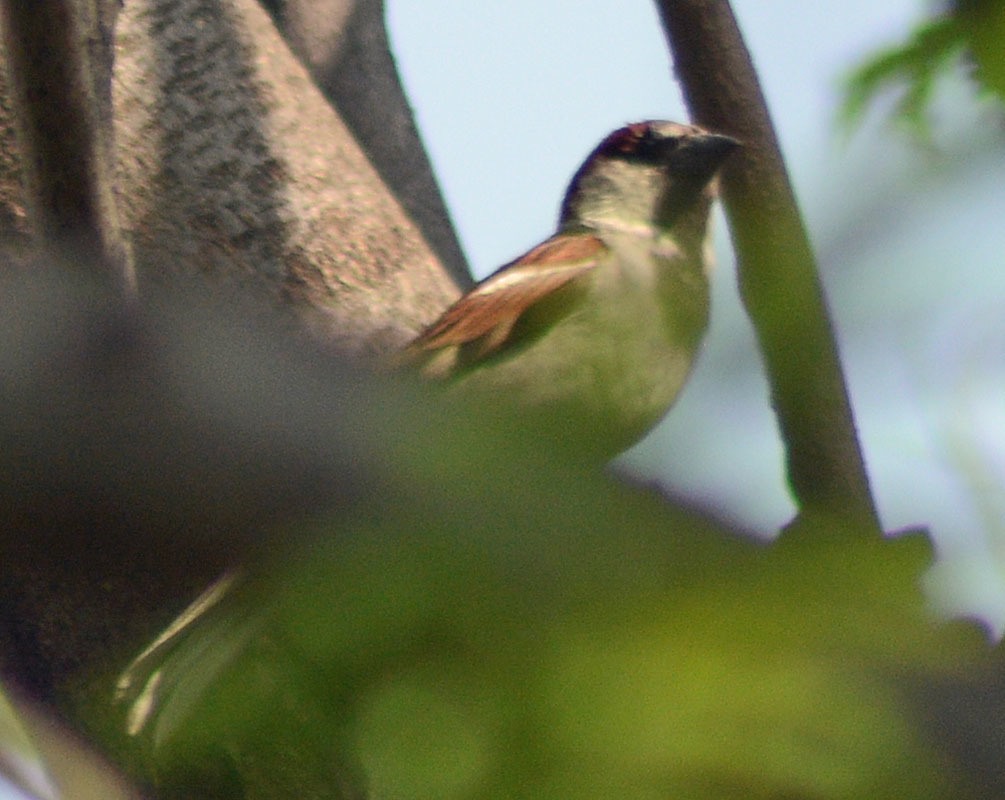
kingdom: Animalia
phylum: Chordata
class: Aves
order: Passeriformes
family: Passeridae
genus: Passer
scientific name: Passer domesticus
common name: House sparrow
